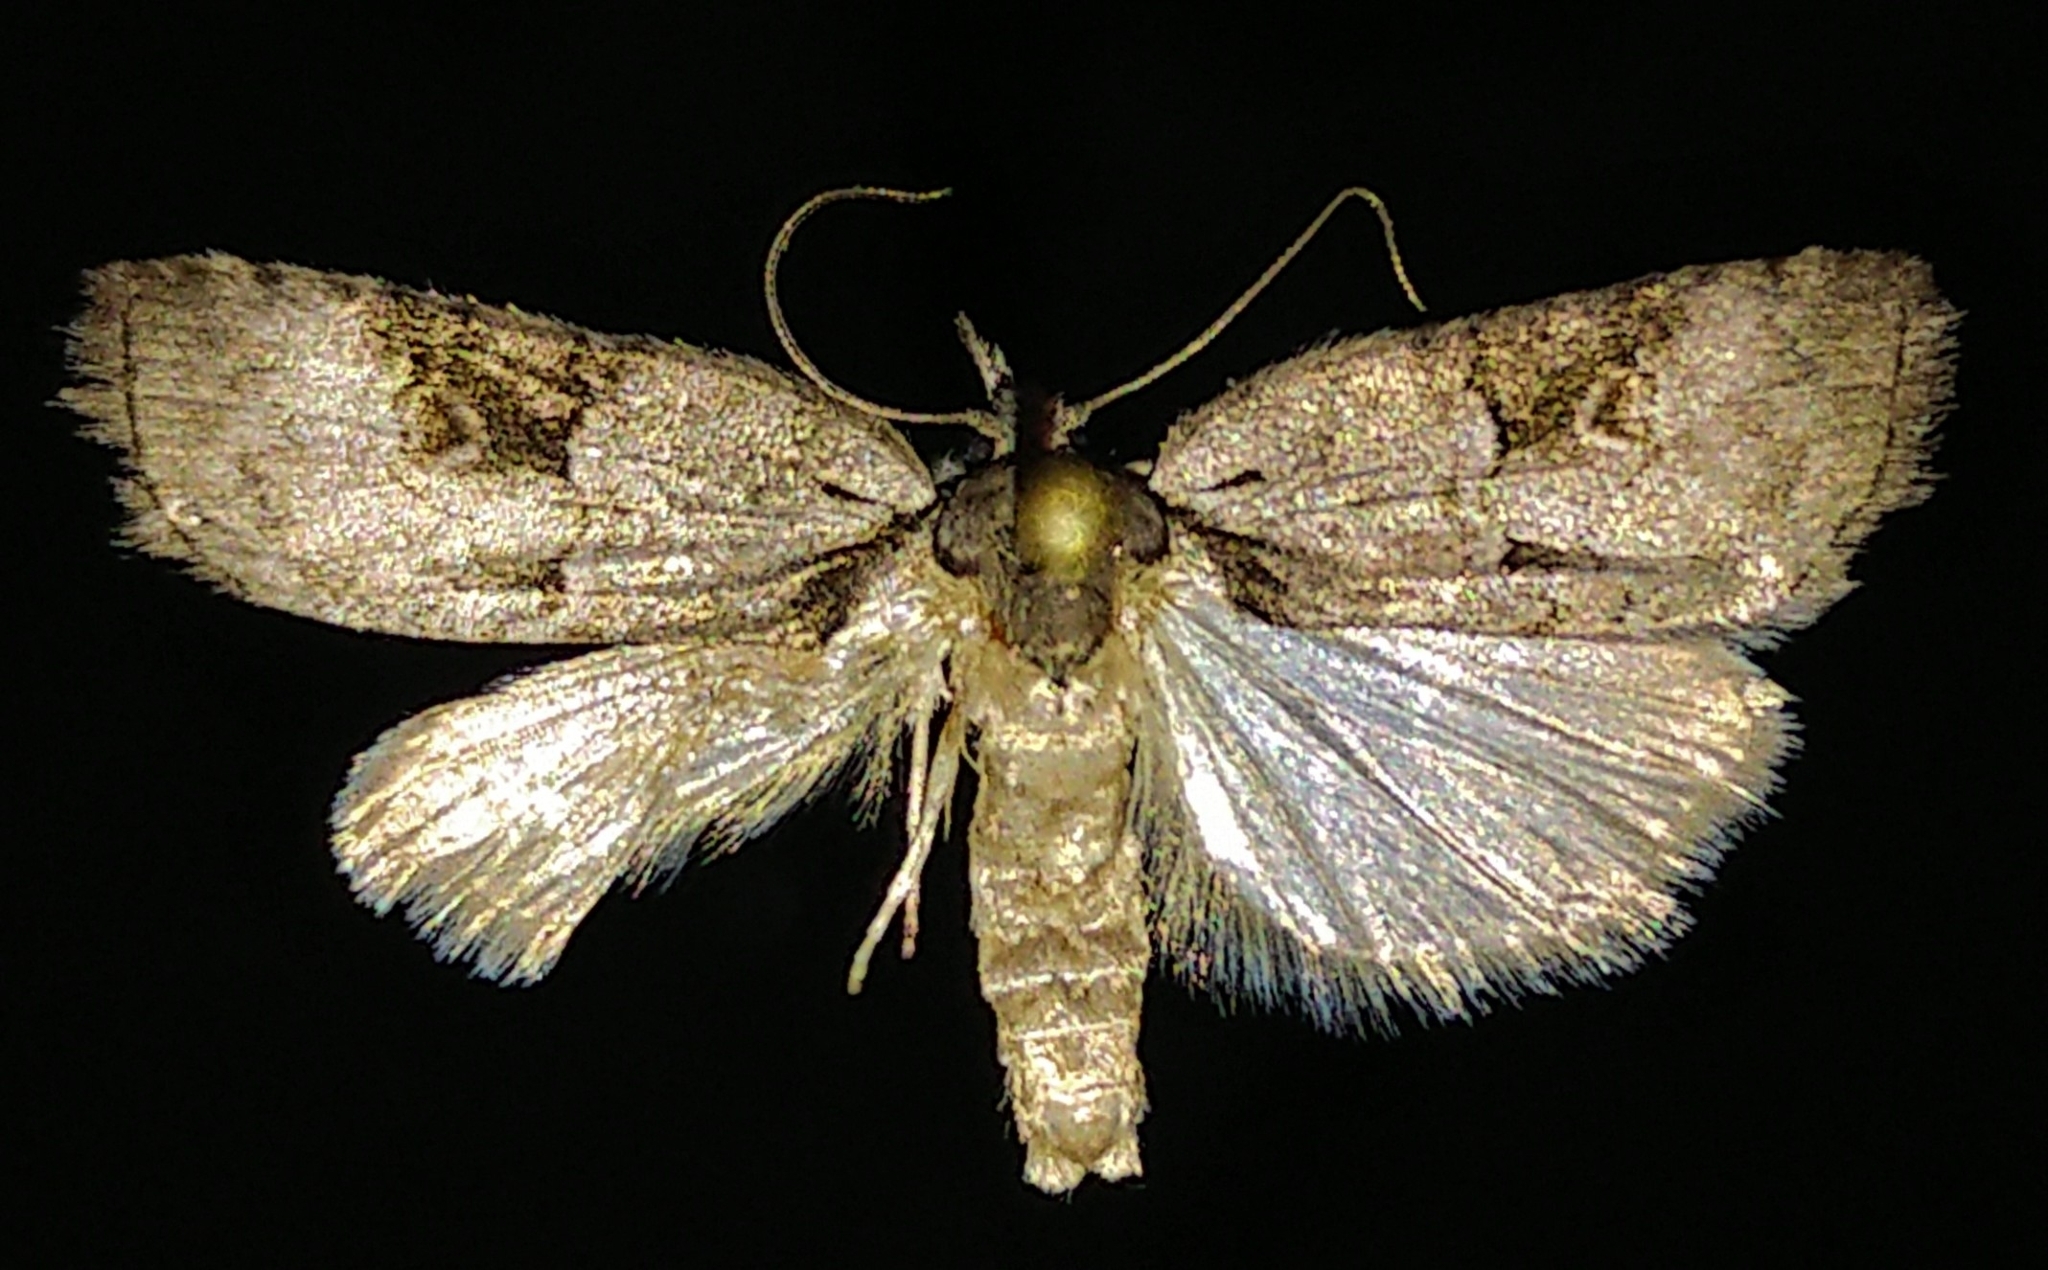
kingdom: Animalia
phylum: Arthropoda
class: Insecta
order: Lepidoptera
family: Nolidae
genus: Nycteola
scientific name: Nycteola frigidana
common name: Frigid owlet
